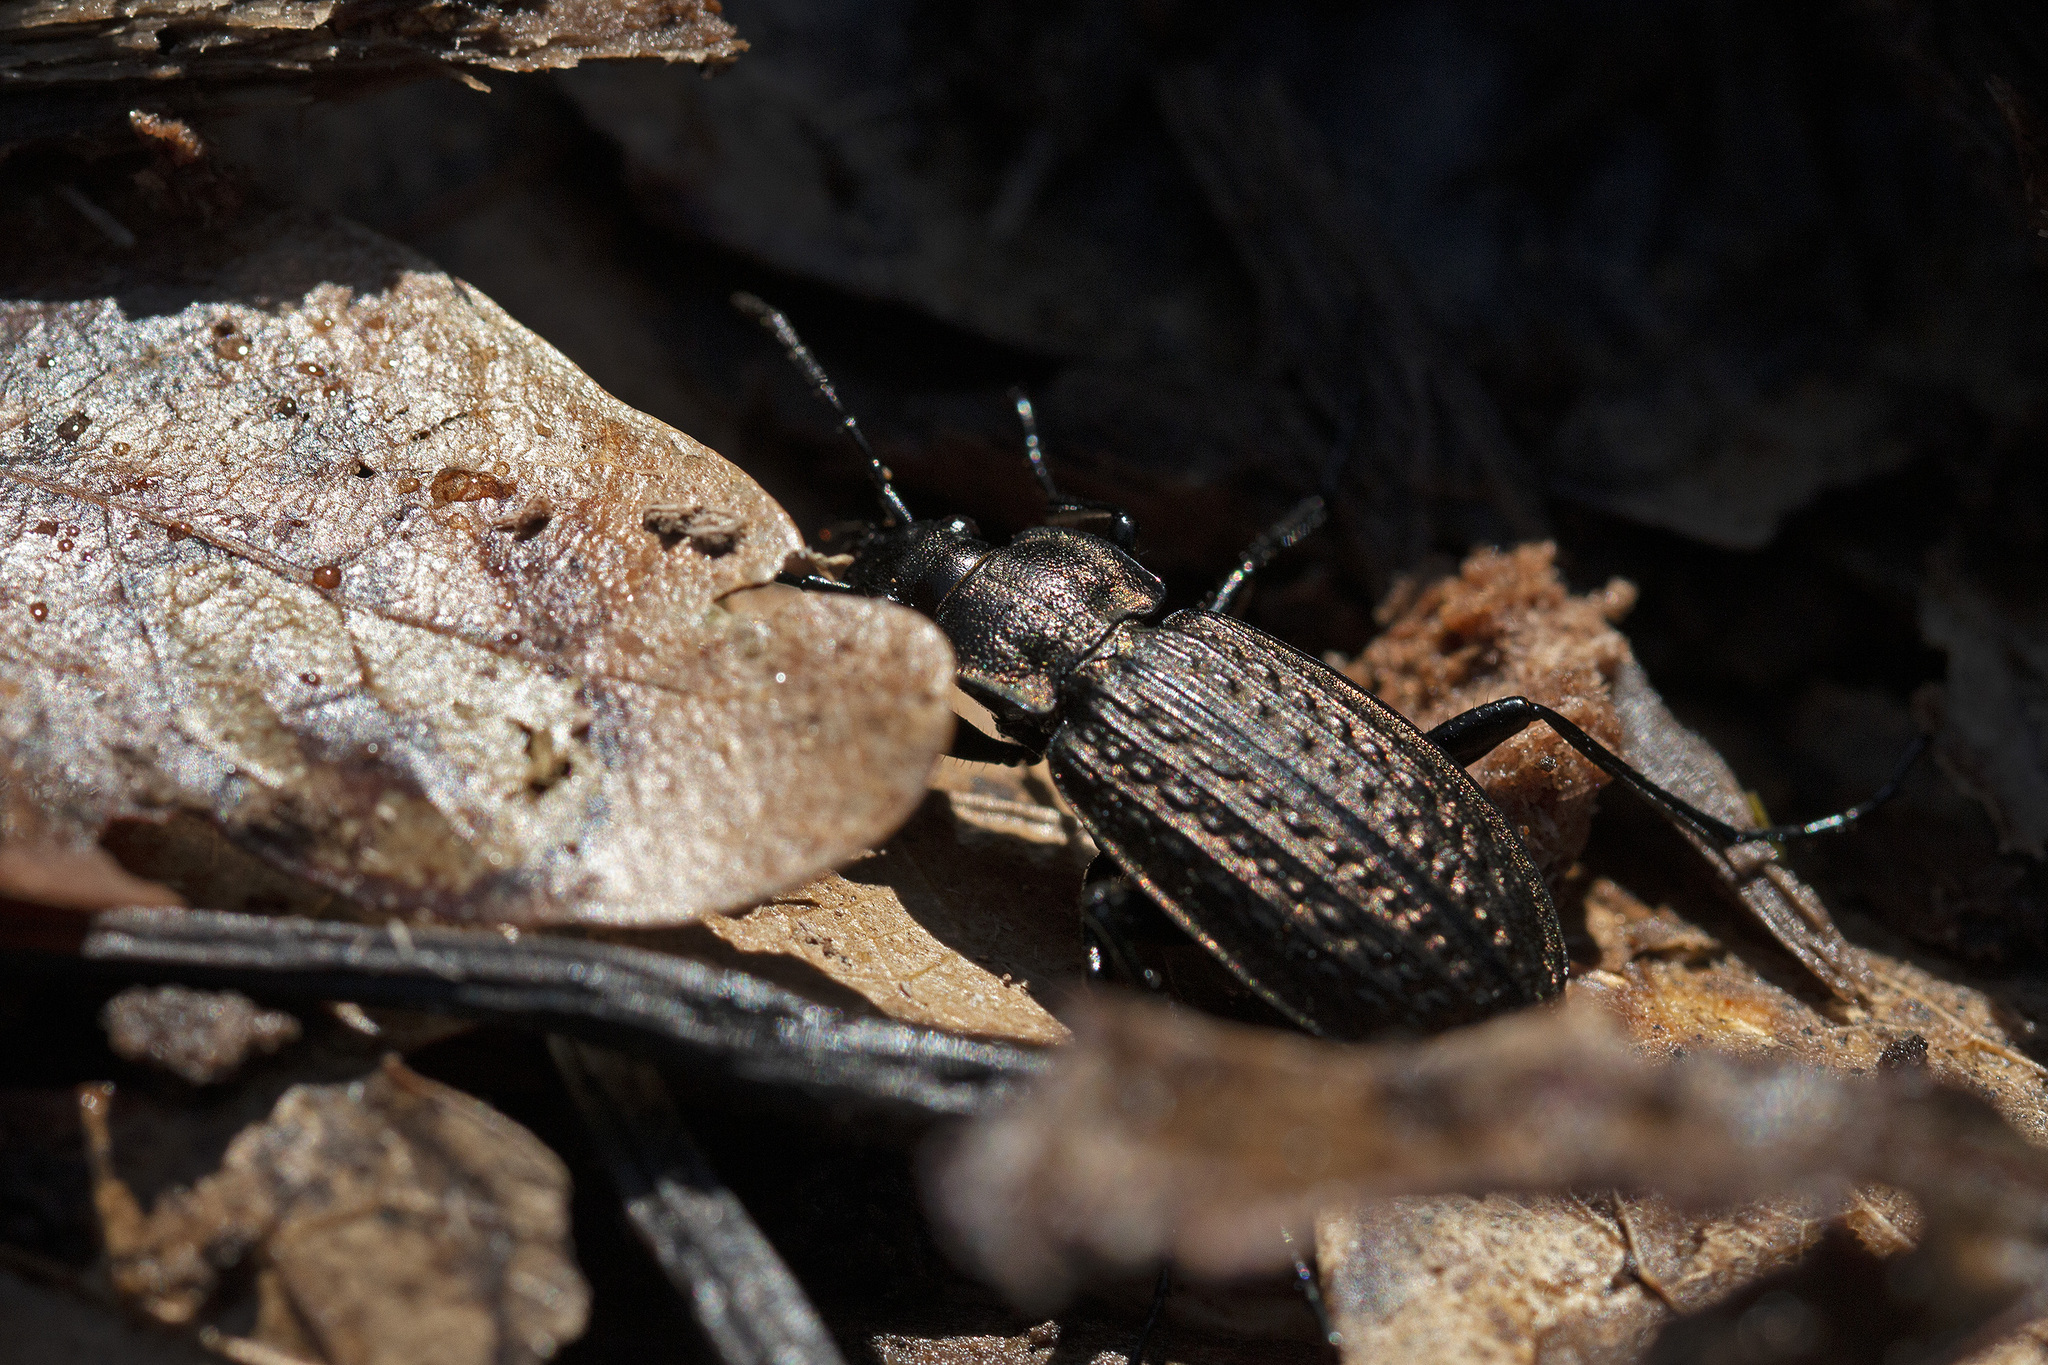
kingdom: Animalia
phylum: Arthropoda
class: Insecta
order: Coleoptera
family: Carabidae
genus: Carabus
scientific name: Carabus granulatus
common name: Granulate ground beetle
